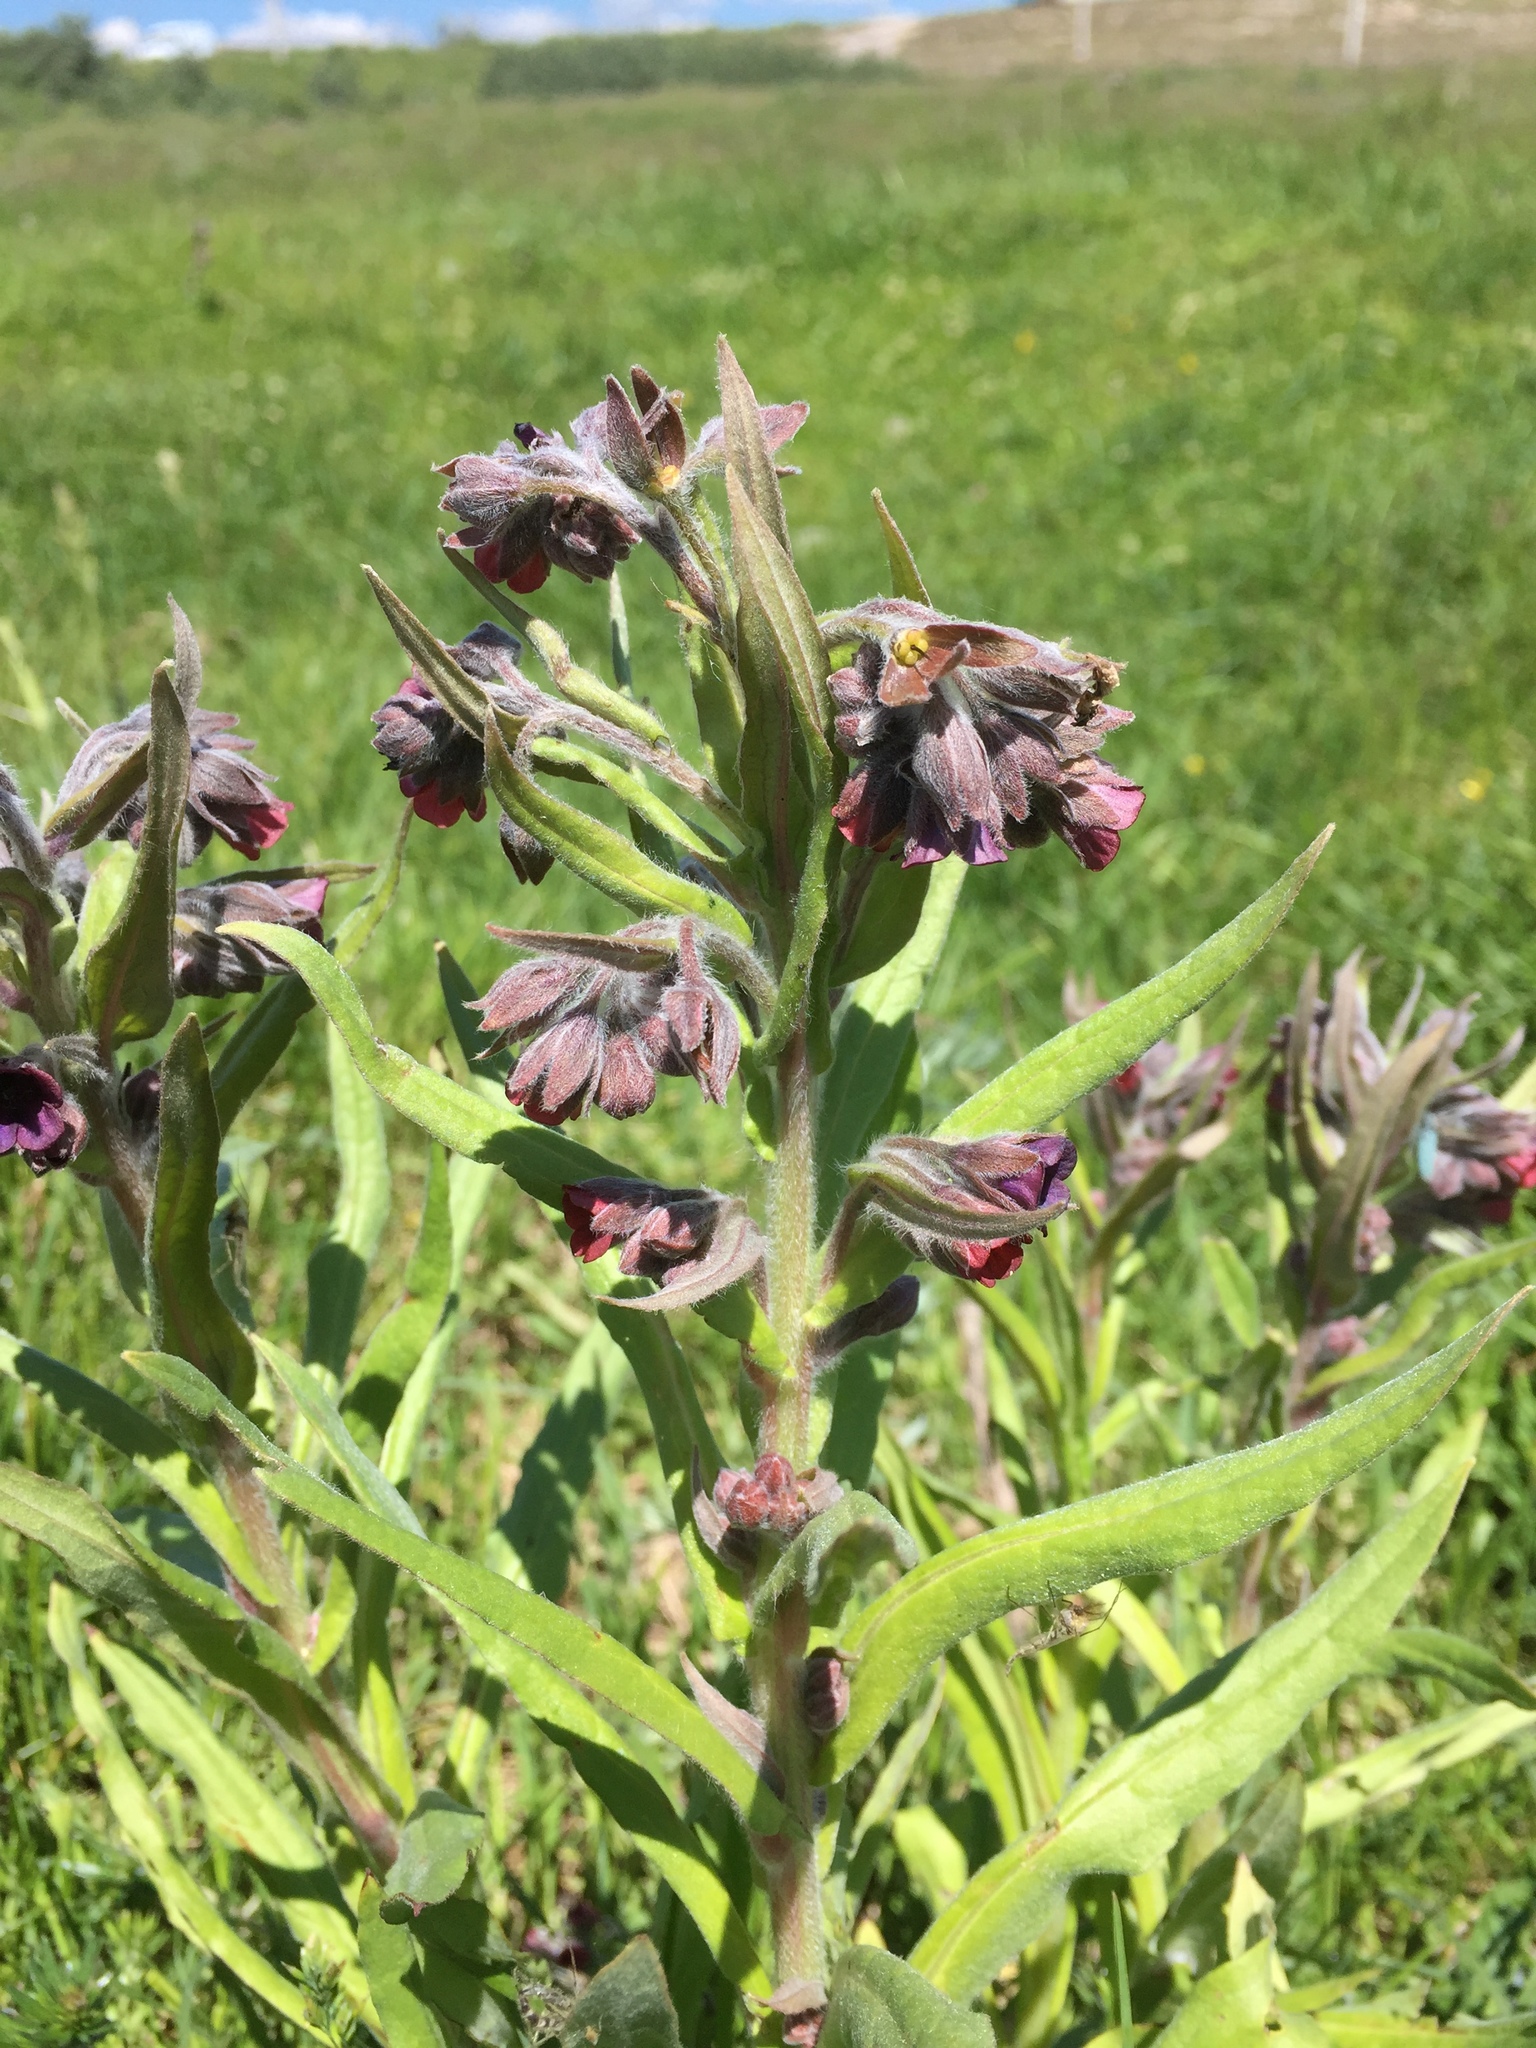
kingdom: Plantae
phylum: Tracheophyta
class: Magnoliopsida
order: Boraginales
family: Boraginaceae
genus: Cynoglossum
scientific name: Cynoglossum officinale
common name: Hound's-tongue
